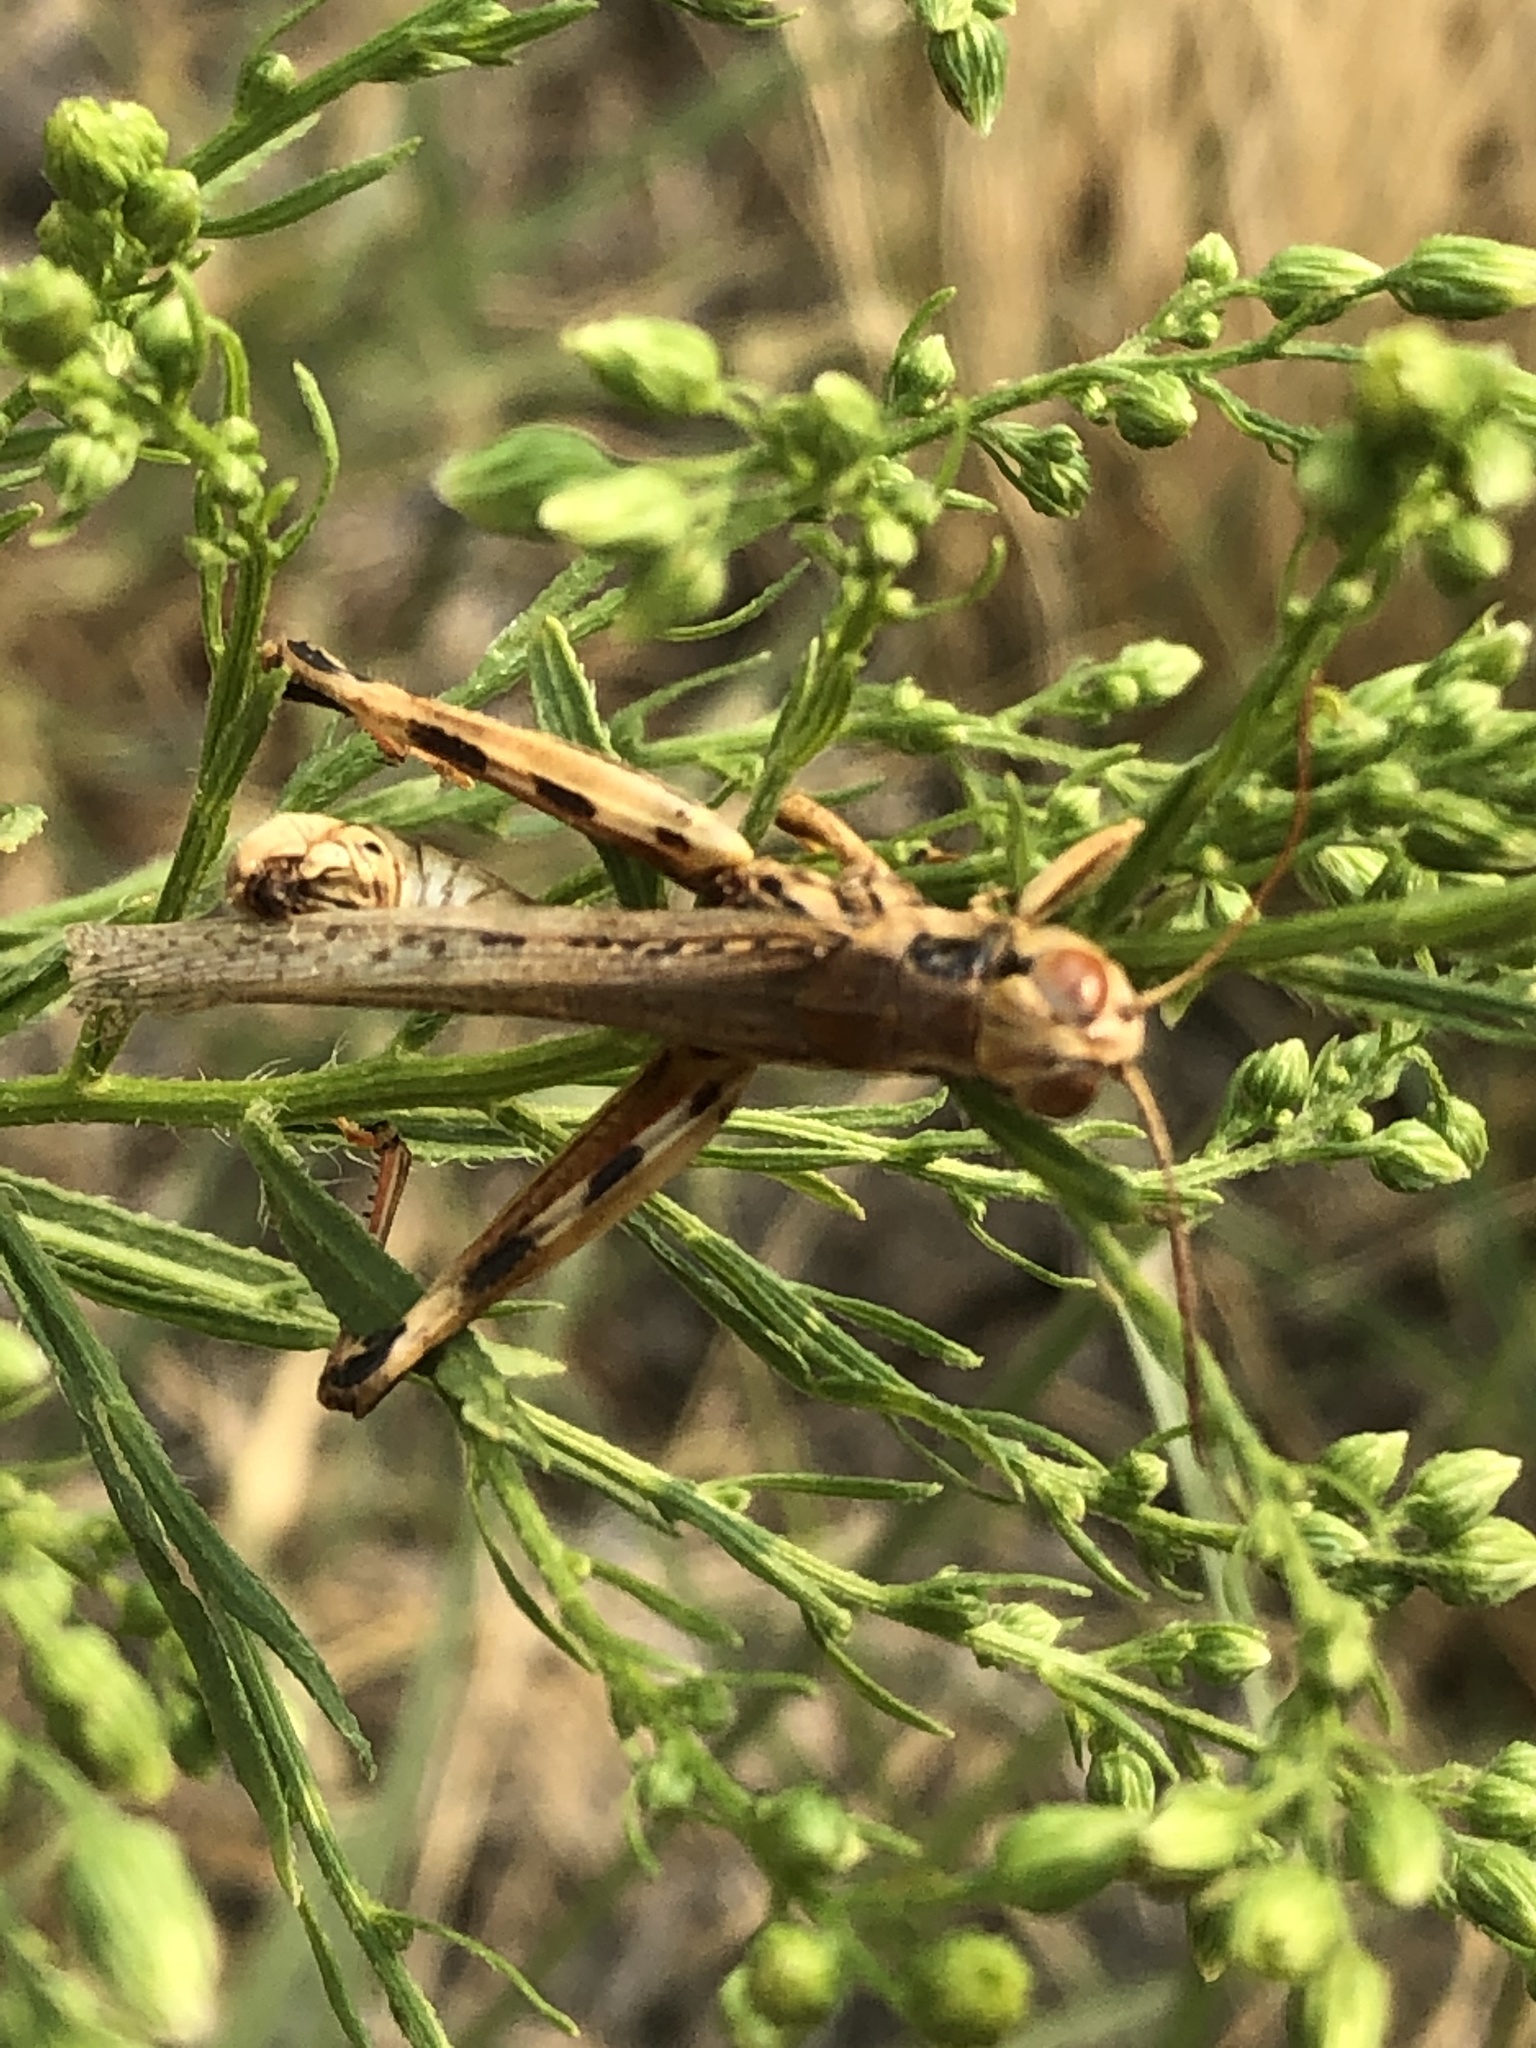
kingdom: Animalia
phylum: Arthropoda
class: Insecta
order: Orthoptera
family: Acrididae
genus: Melanoplus
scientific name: Melanoplus sanguinipes
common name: Migratory grasshopper
